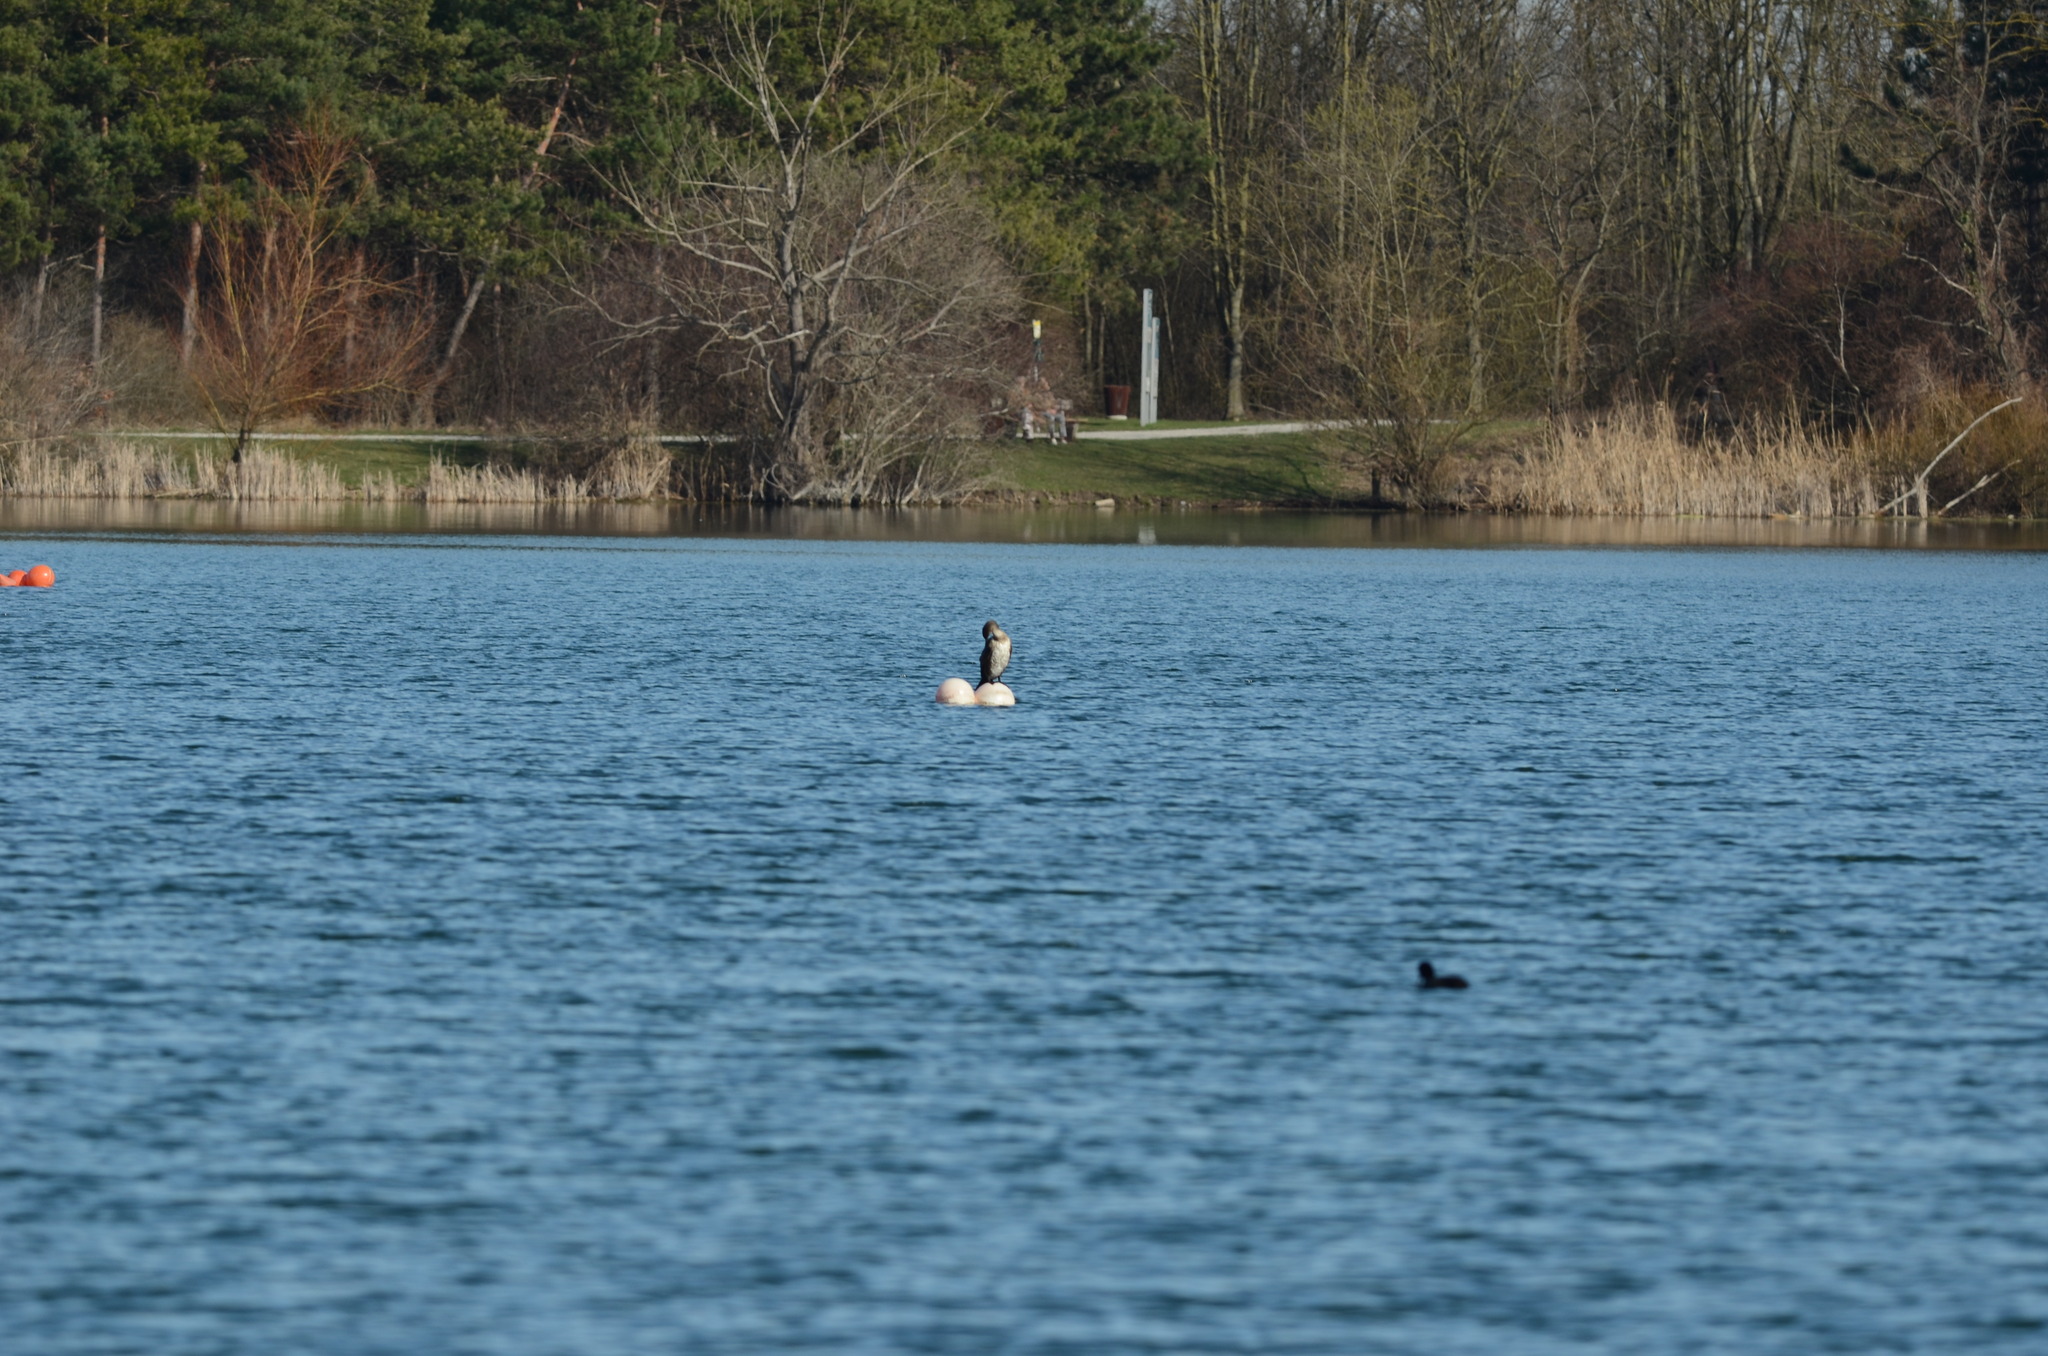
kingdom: Animalia
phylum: Chordata
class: Aves
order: Suliformes
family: Phalacrocoracidae
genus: Phalacrocorax
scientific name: Phalacrocorax carbo
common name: Great cormorant
